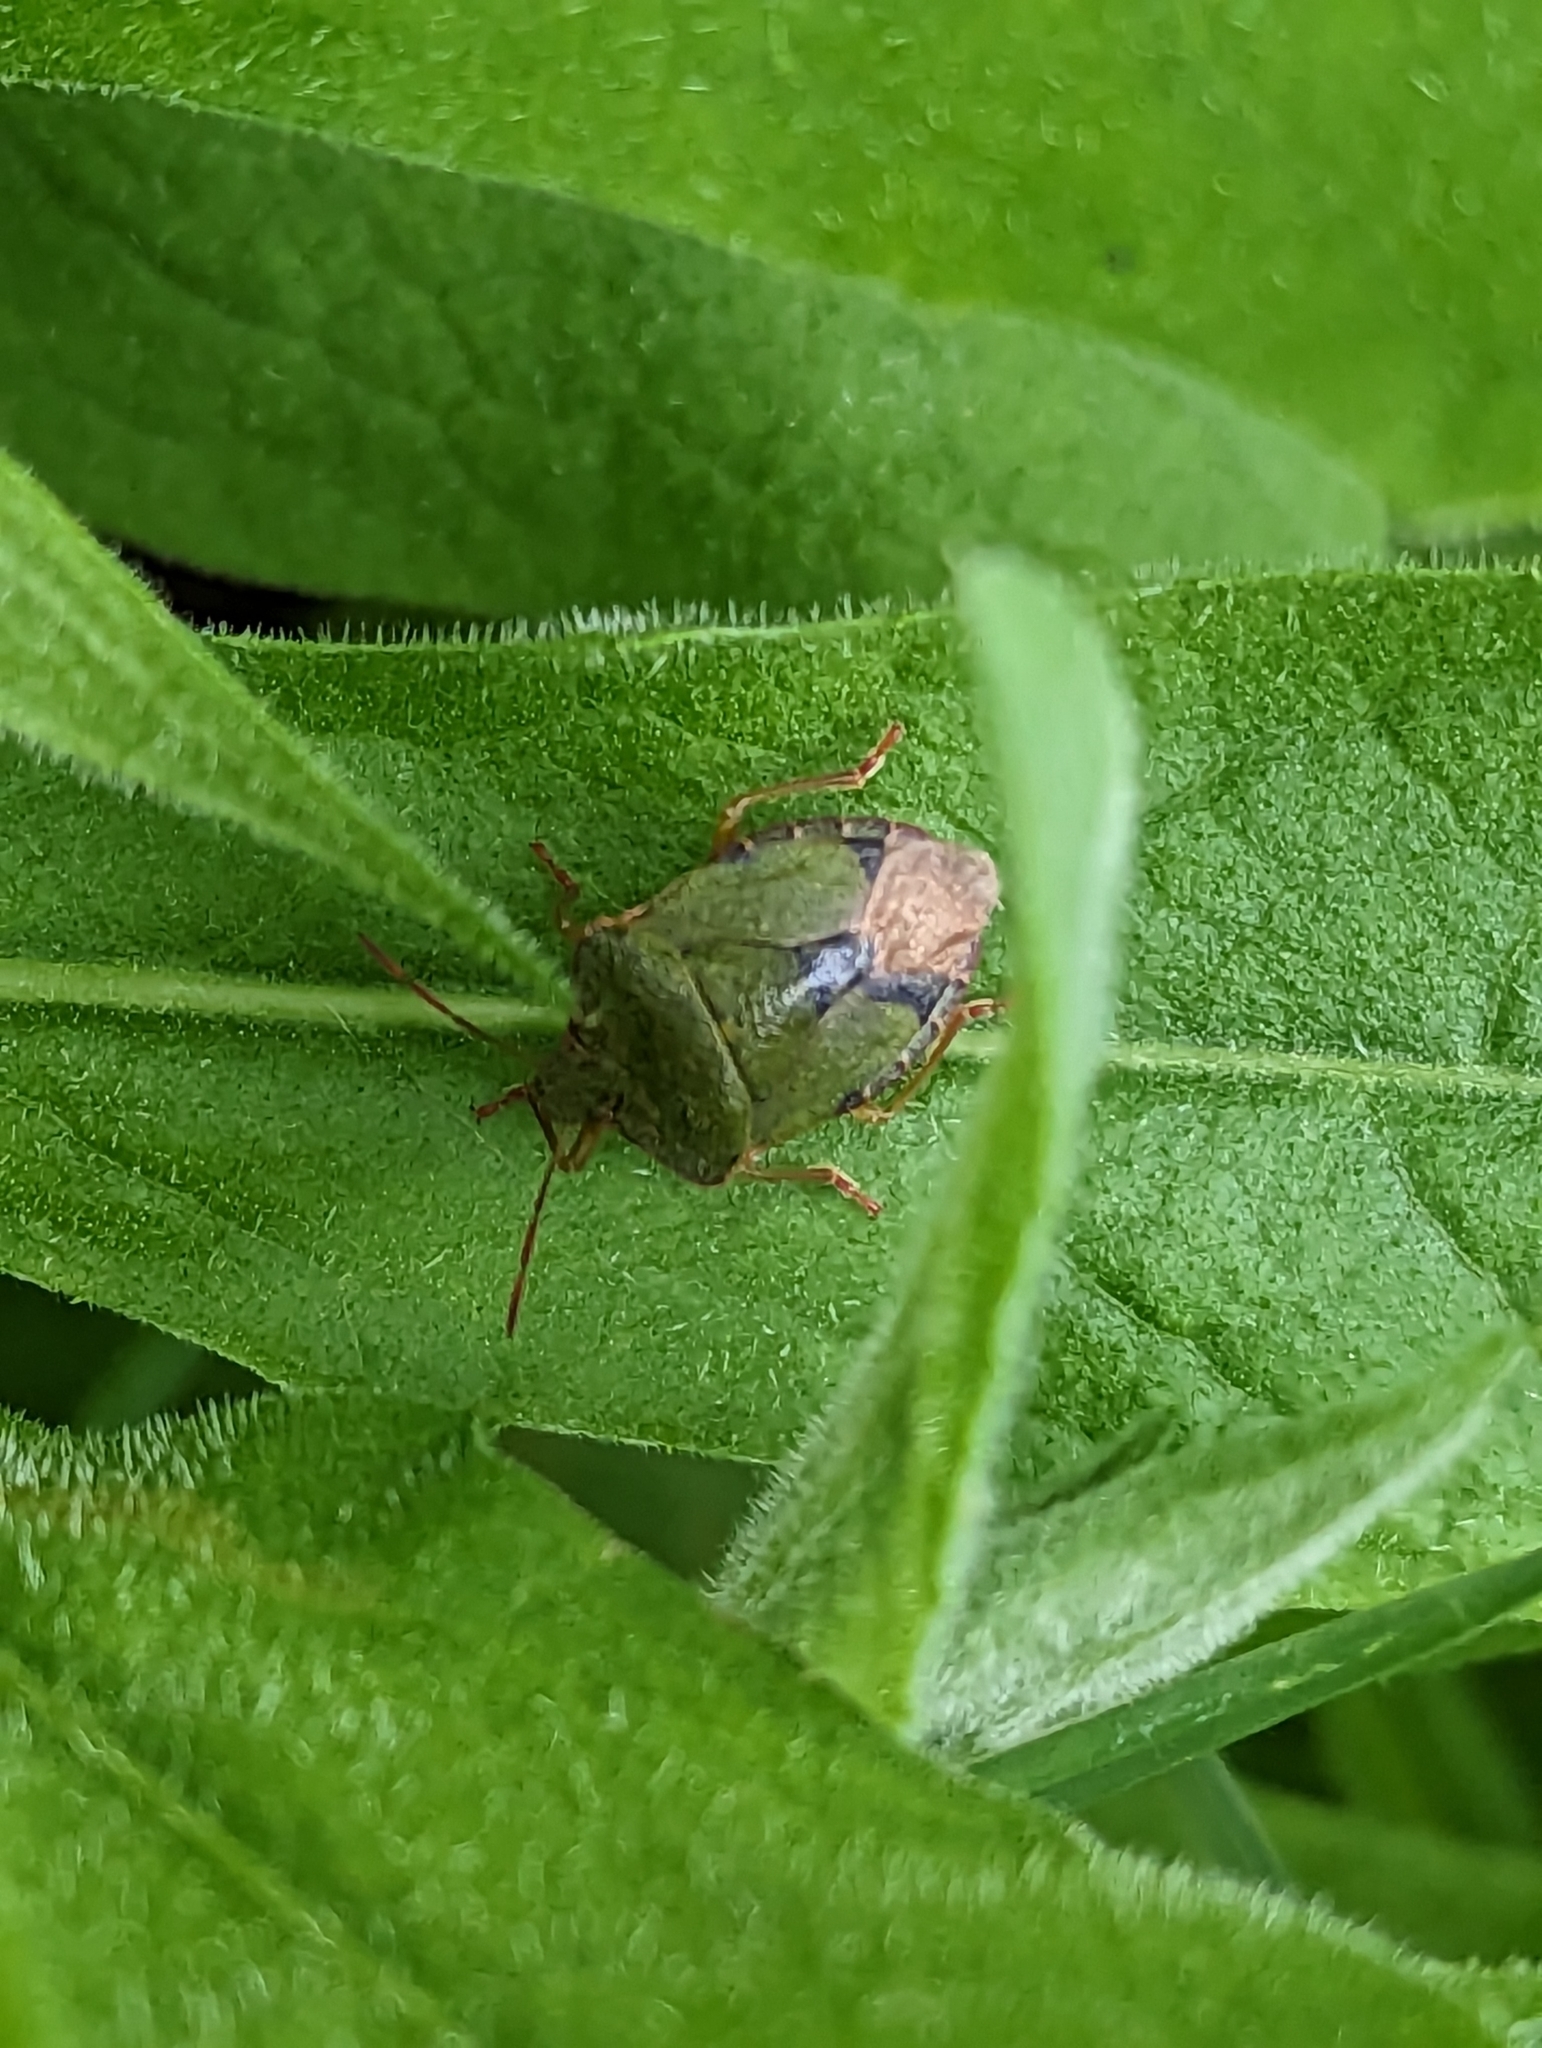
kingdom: Animalia
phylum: Arthropoda
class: Insecta
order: Hemiptera
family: Pentatomidae
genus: Palomena
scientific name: Palomena prasina
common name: Green shieldbug
